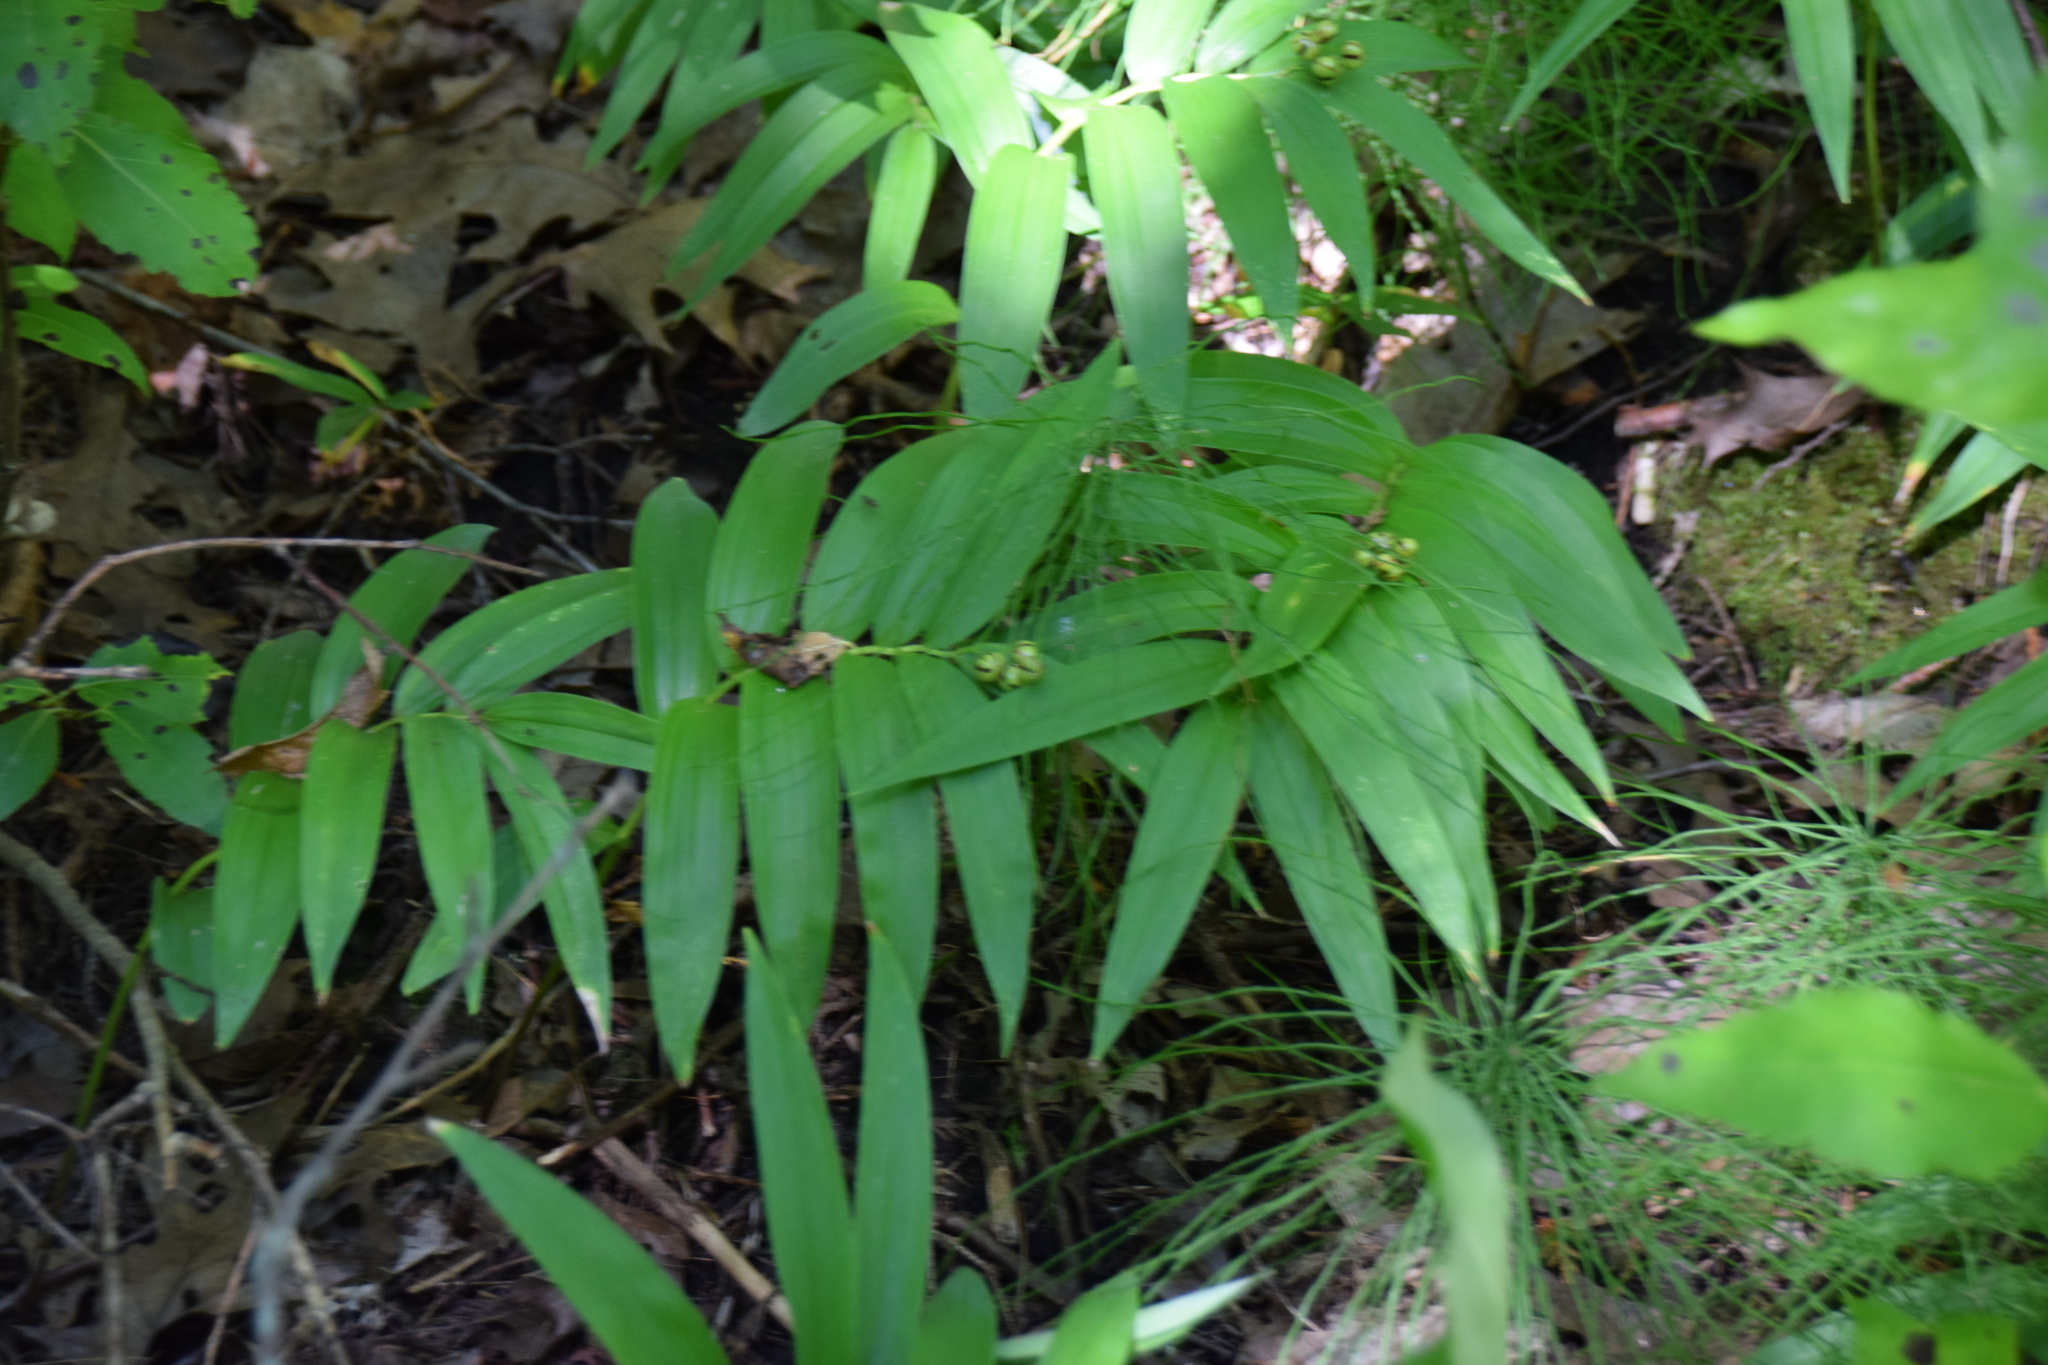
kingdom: Plantae
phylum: Tracheophyta
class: Liliopsida
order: Asparagales
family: Asparagaceae
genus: Maianthemum
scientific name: Maianthemum stellatum
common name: Little false solomon's seal
